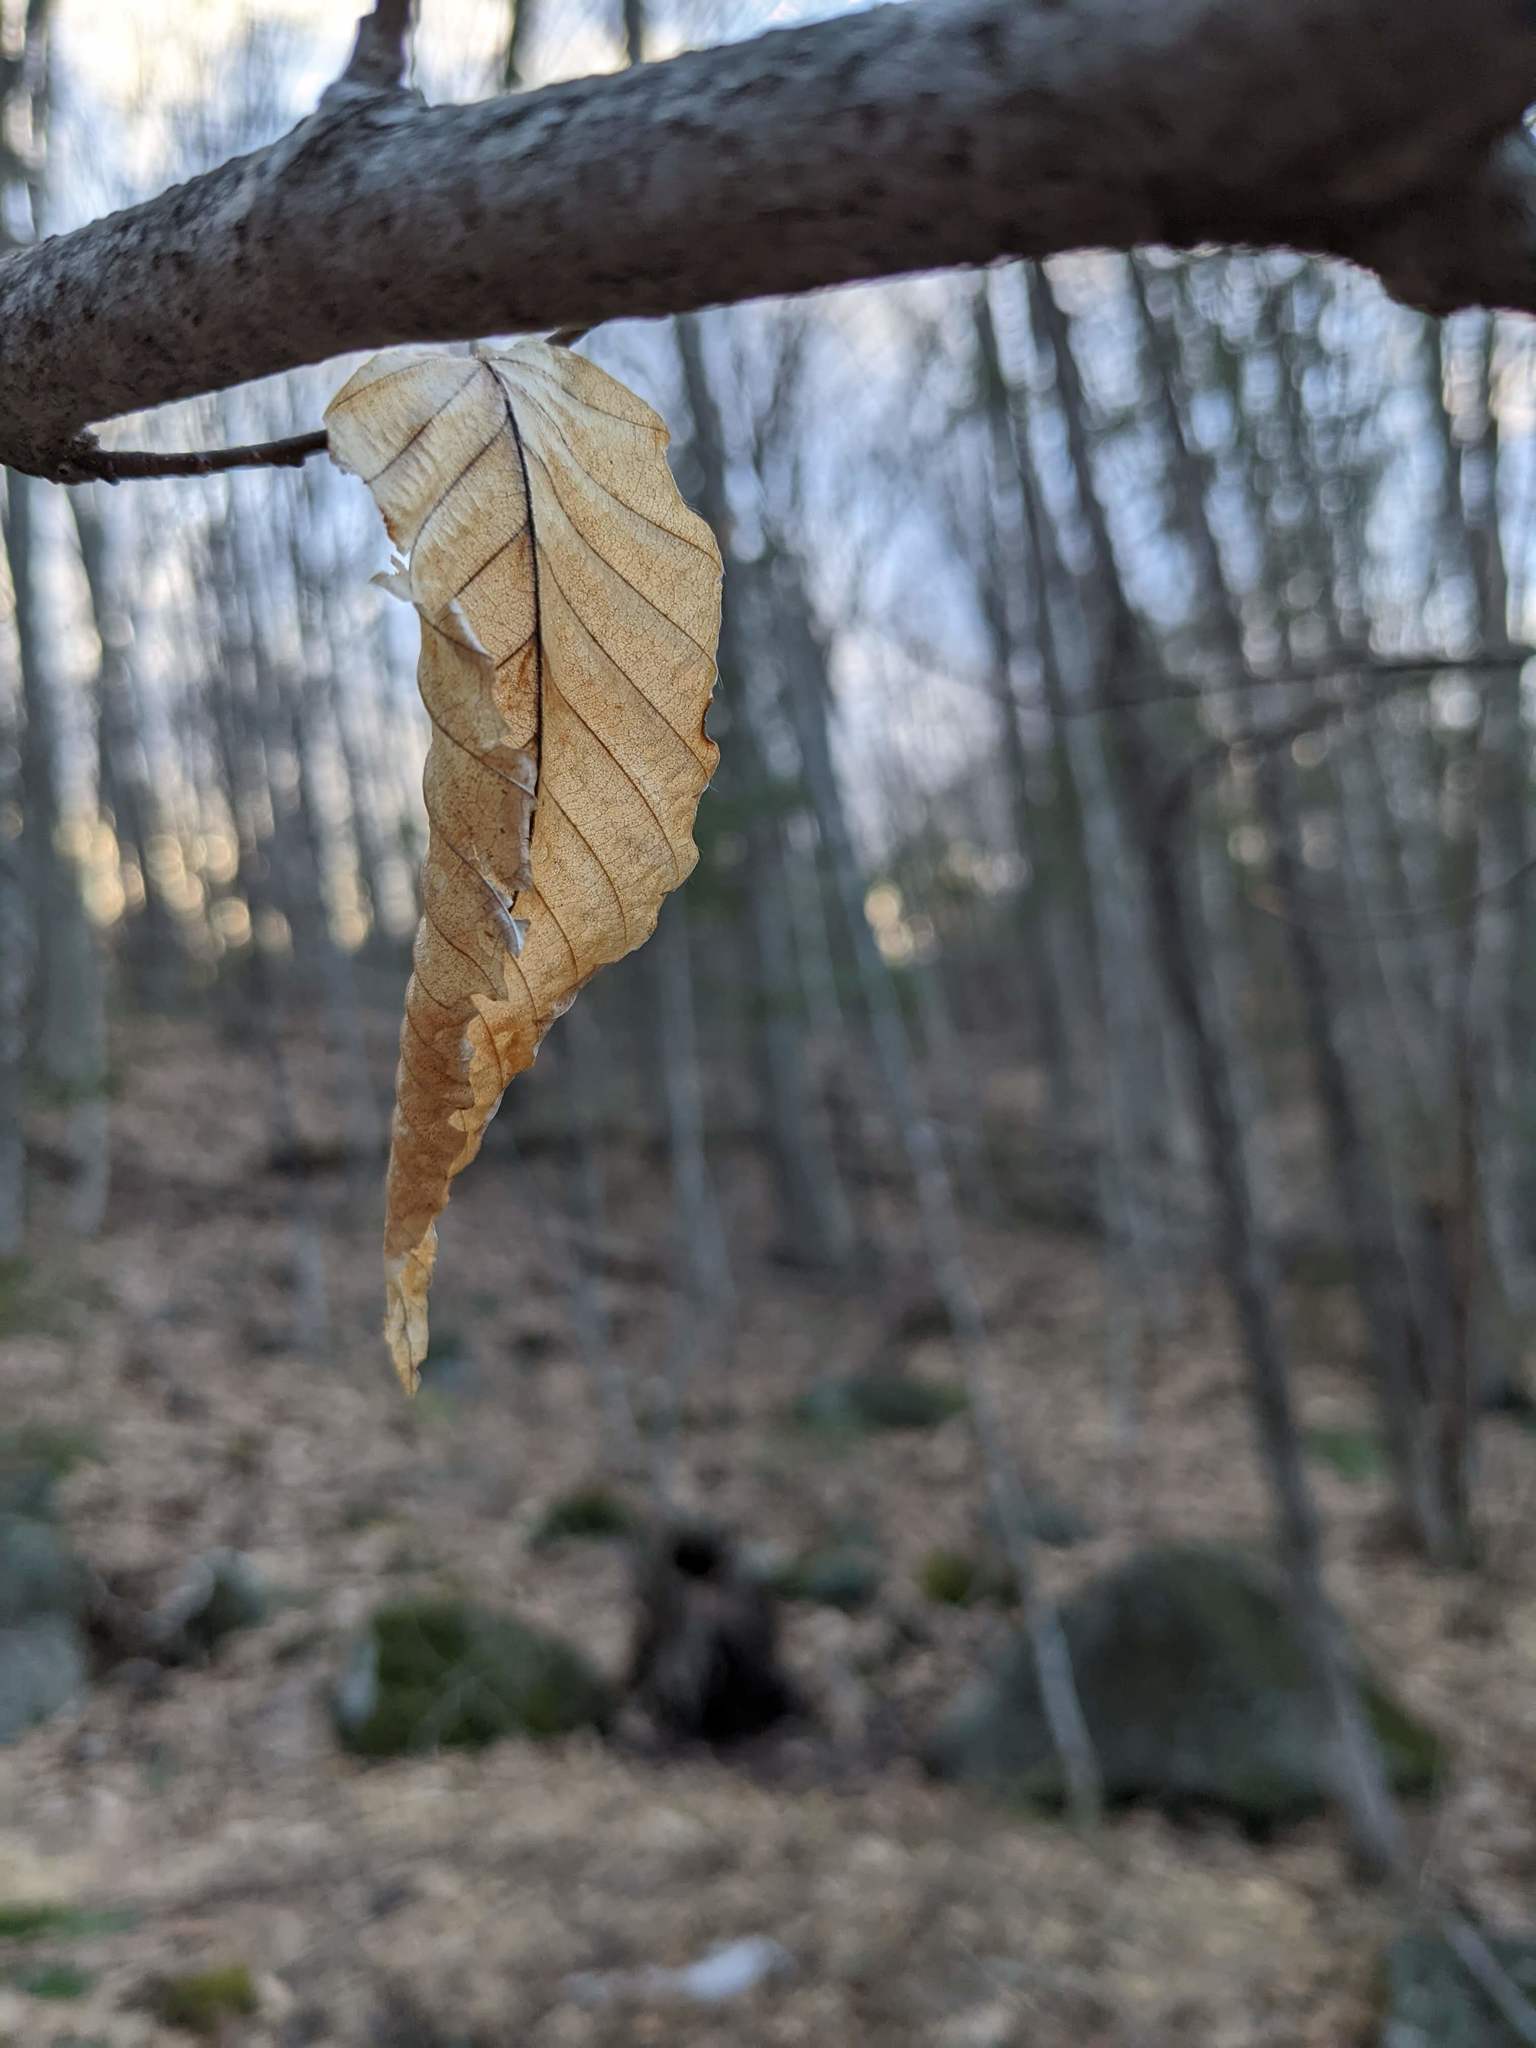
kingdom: Plantae
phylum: Tracheophyta
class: Magnoliopsida
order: Fagales
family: Fagaceae
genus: Fagus
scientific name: Fagus grandifolia
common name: American beech
